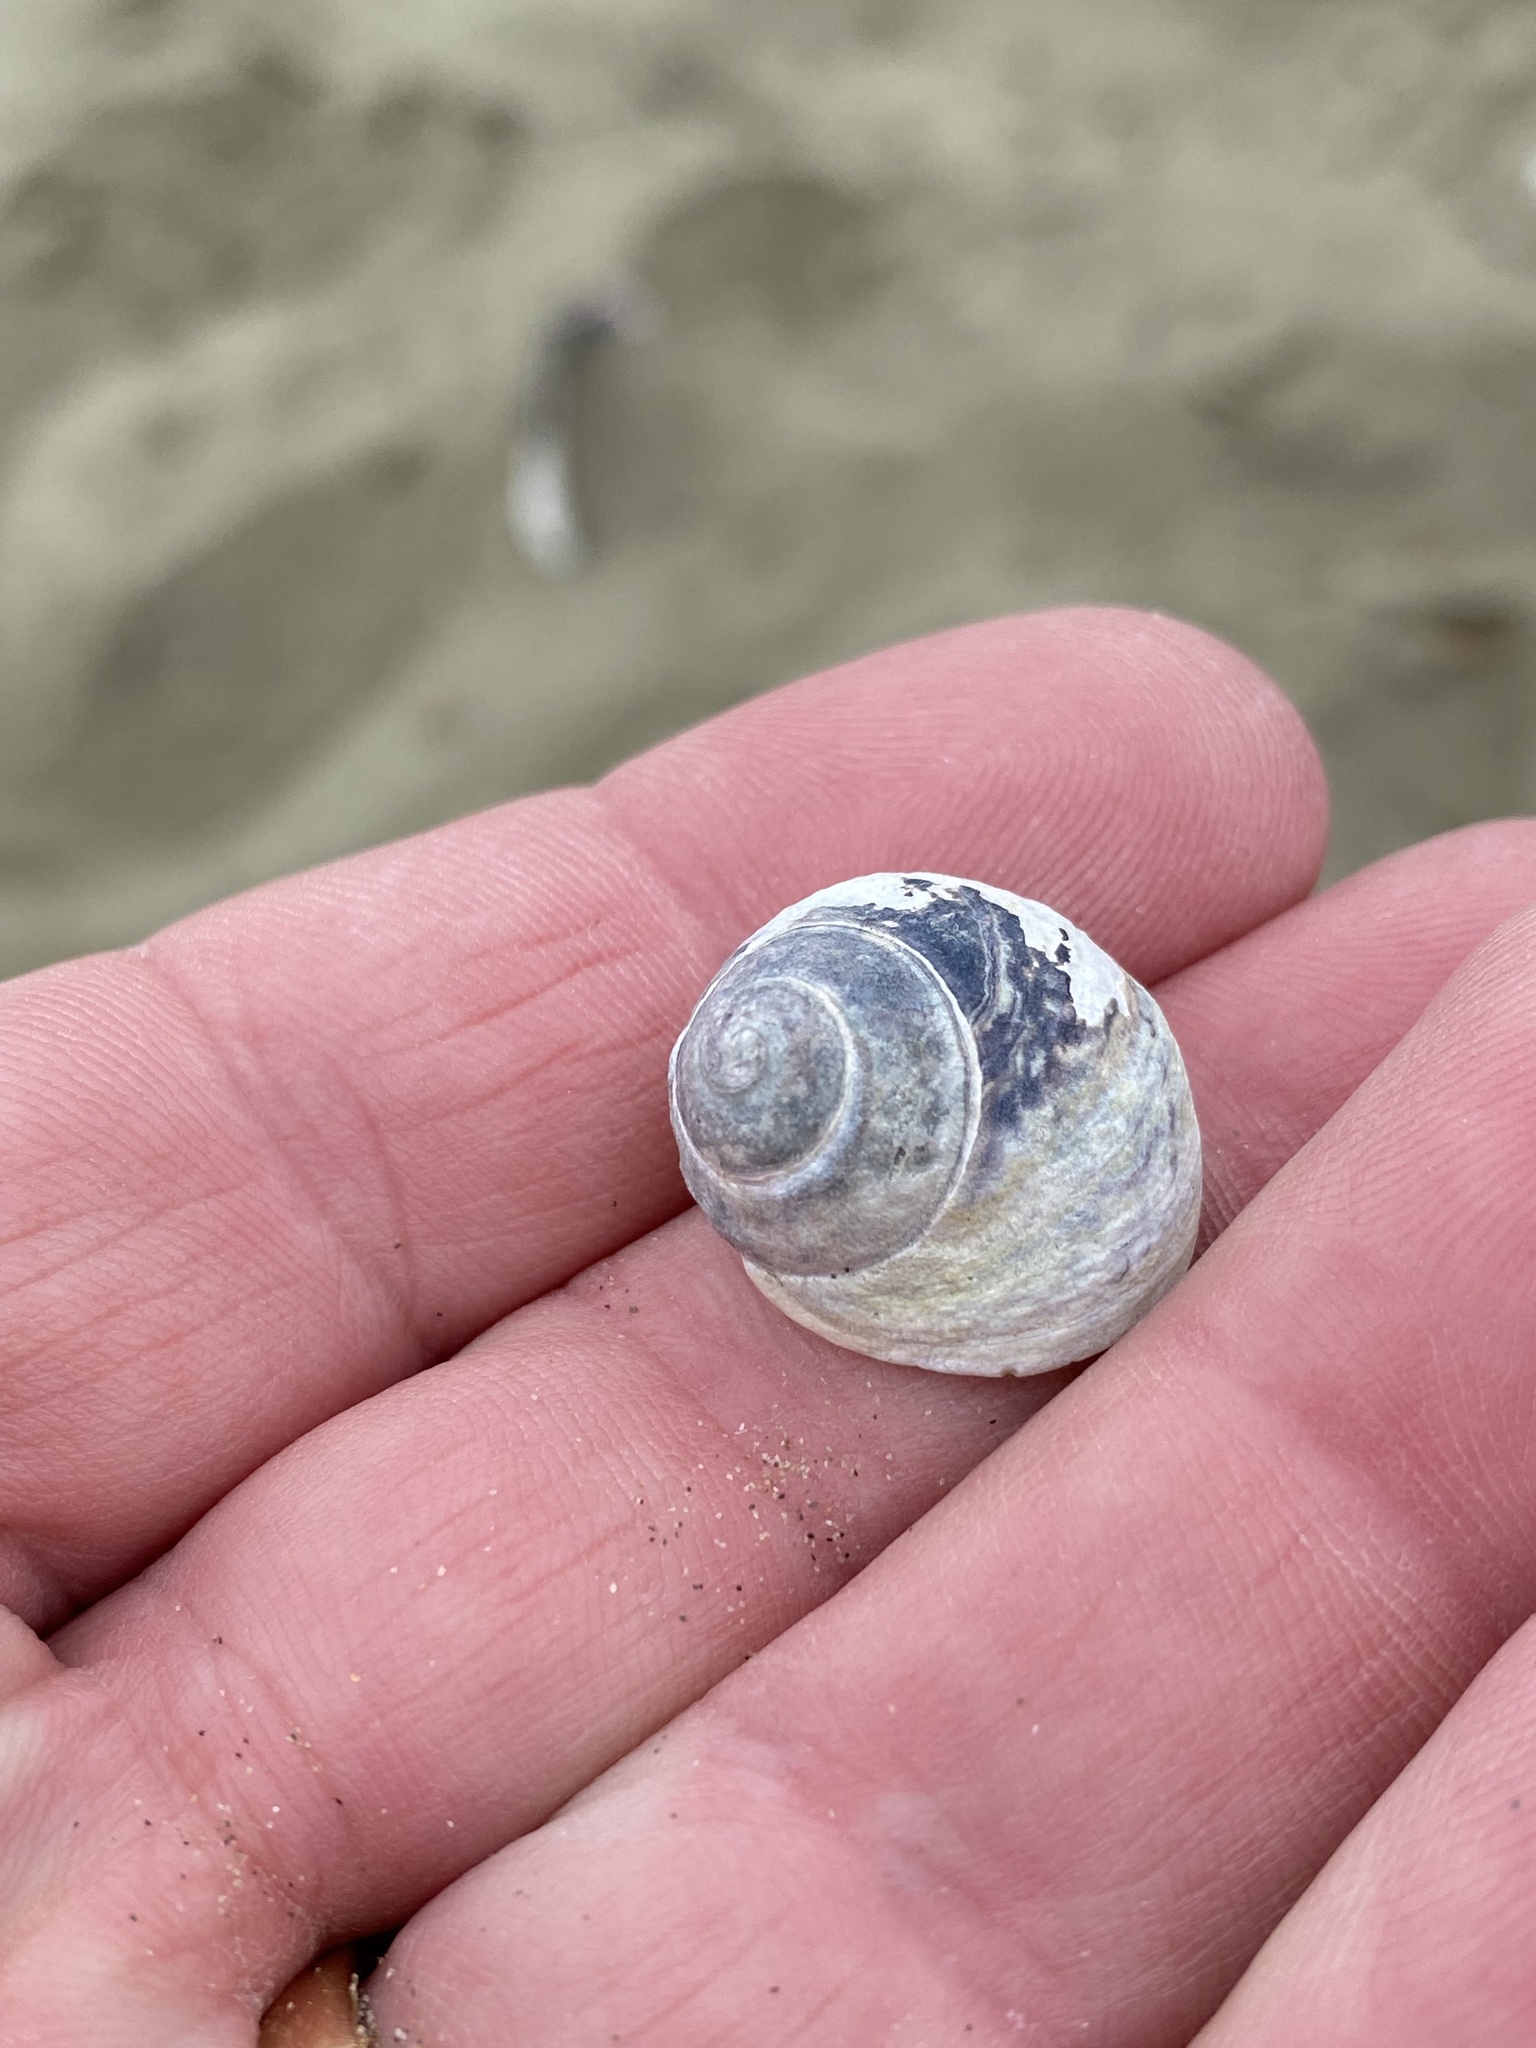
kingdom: Animalia
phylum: Mollusca
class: Gastropoda
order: Trochida
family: Trochidae
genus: Diloma
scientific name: Diloma subrostratum
